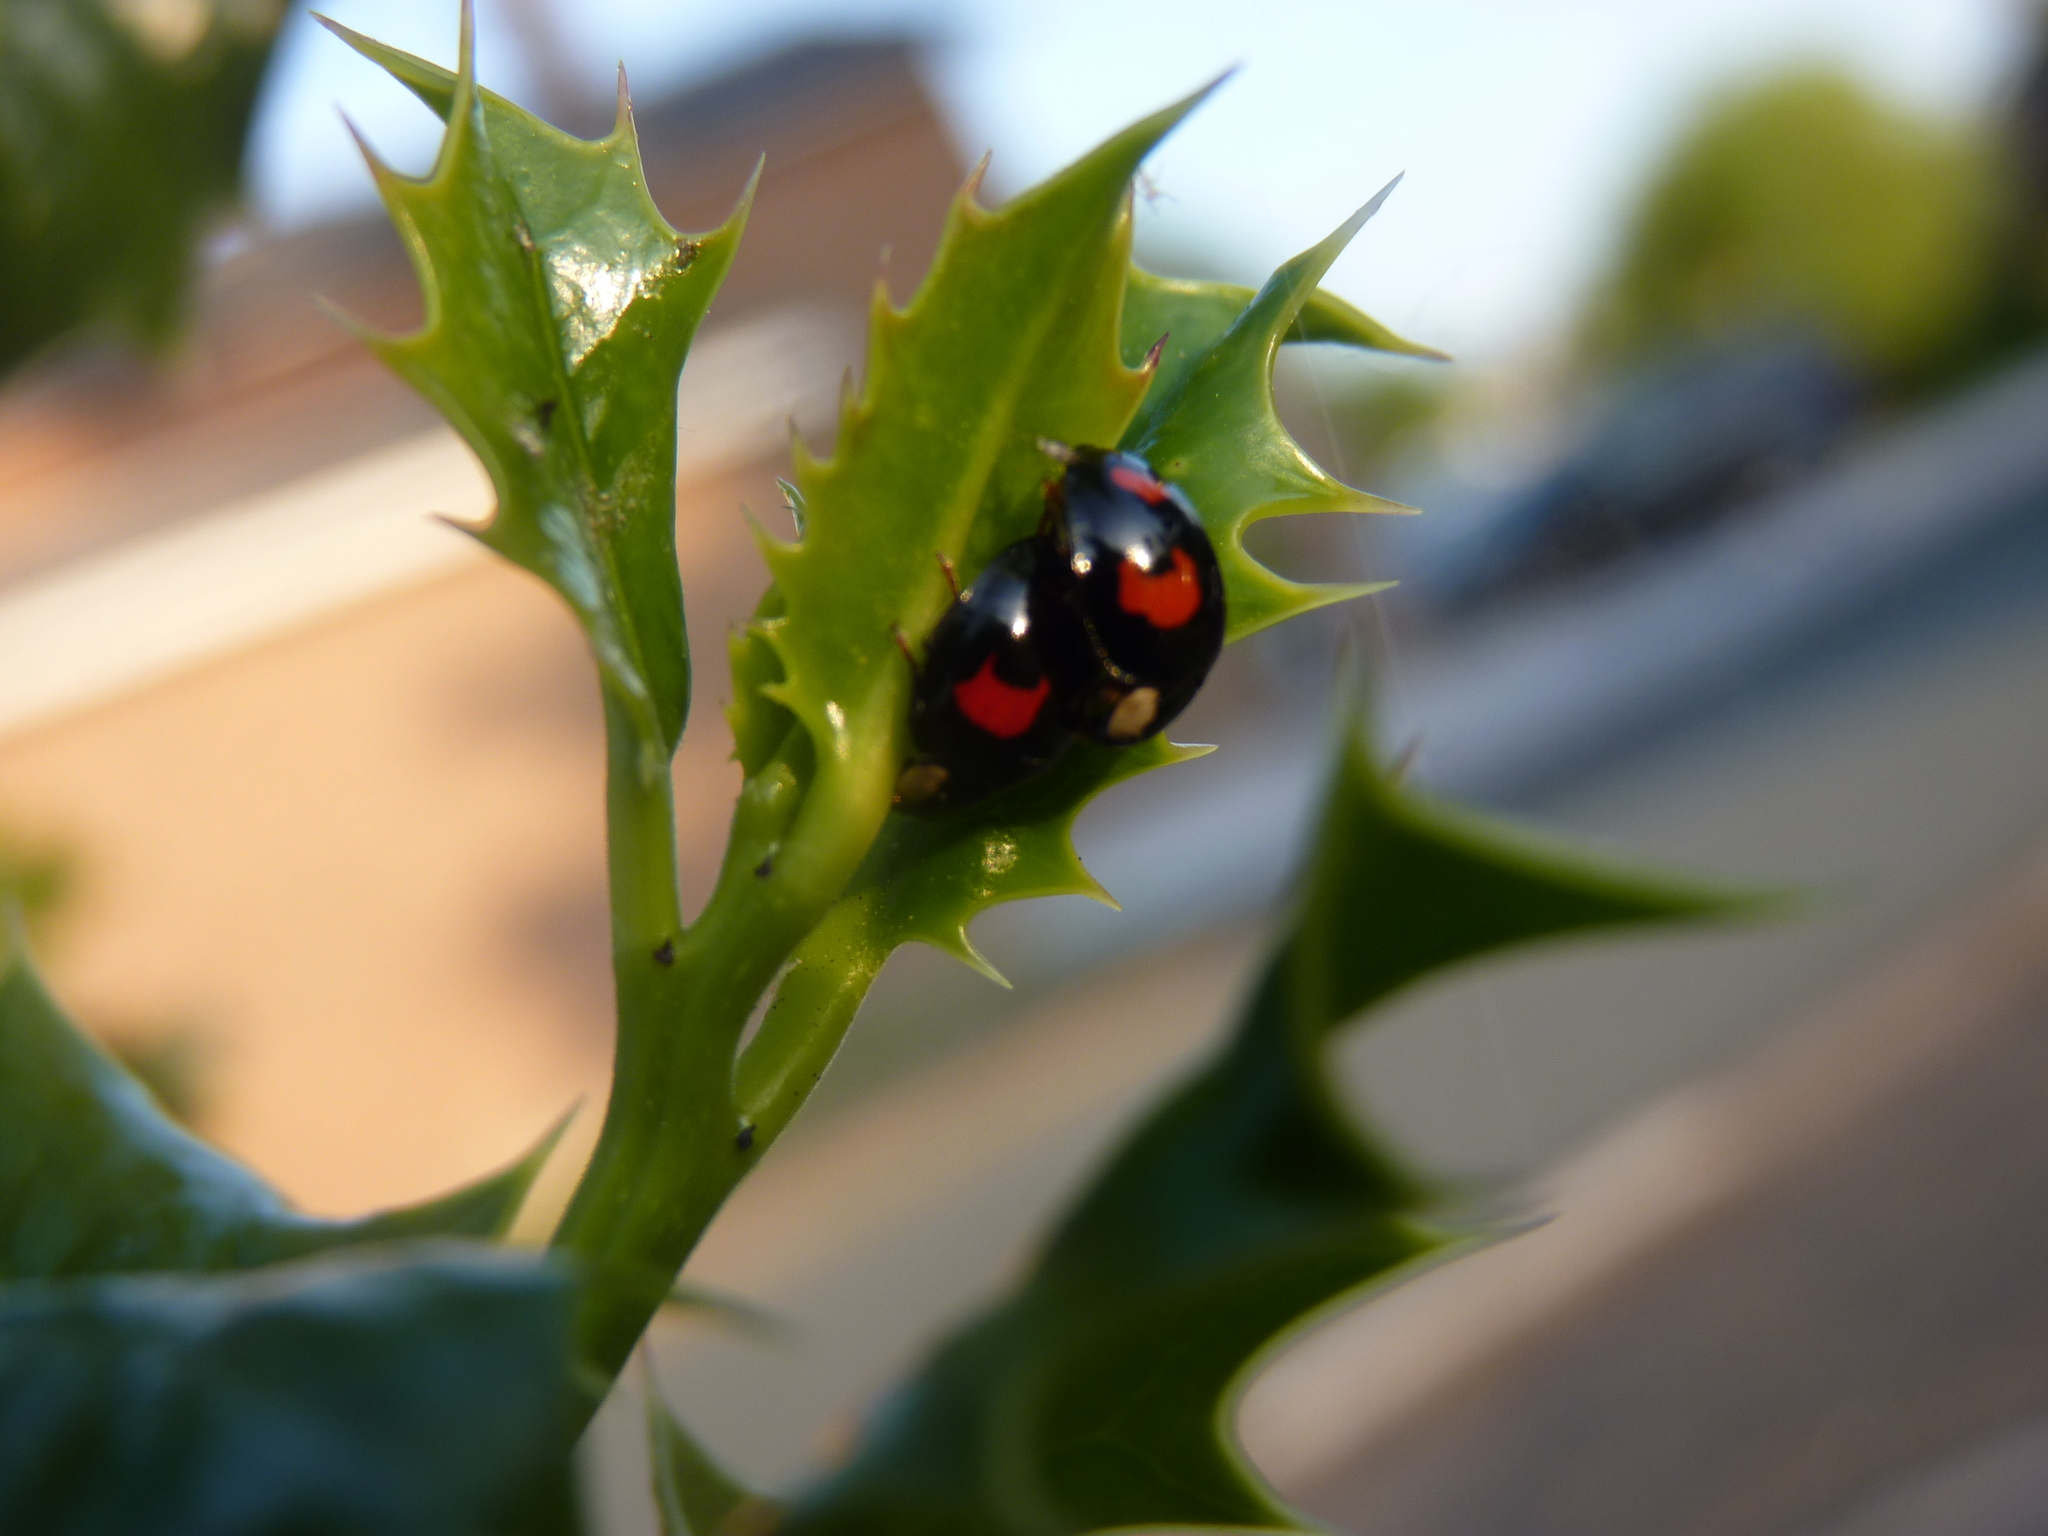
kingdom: Animalia
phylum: Arthropoda
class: Insecta
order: Coleoptera
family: Coccinellidae
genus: Harmonia
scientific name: Harmonia axyridis
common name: Harlequin ladybird
